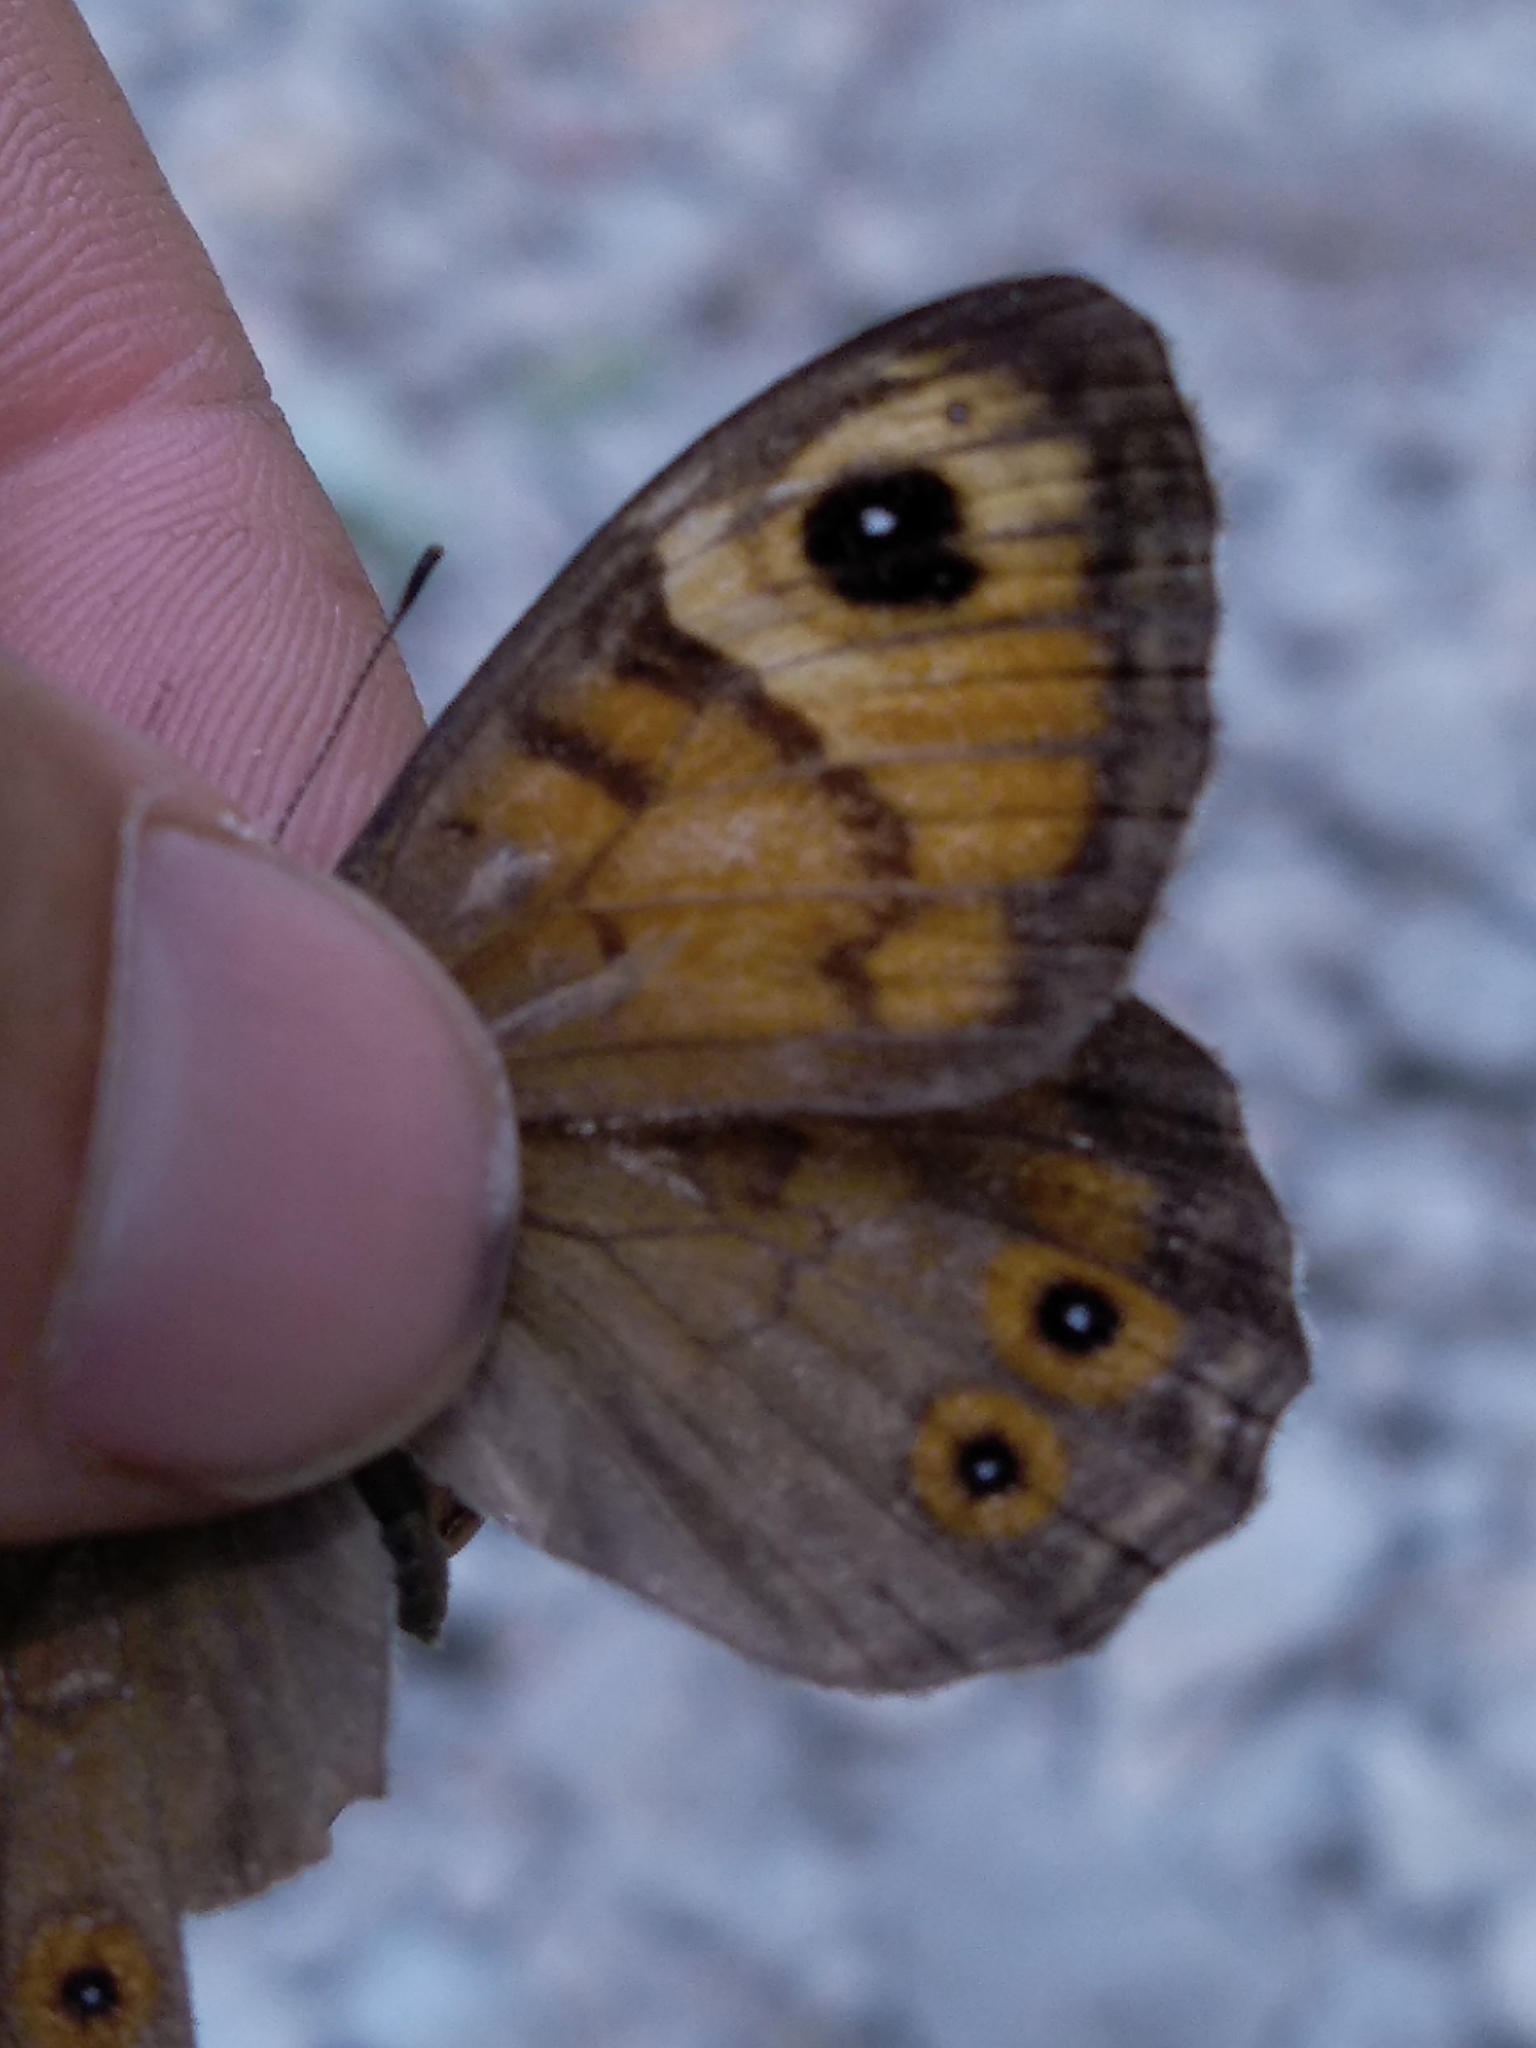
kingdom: Animalia
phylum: Arthropoda
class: Insecta
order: Lepidoptera
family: Nymphalidae
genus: Pararge
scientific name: Pararge Lasiommata maera
